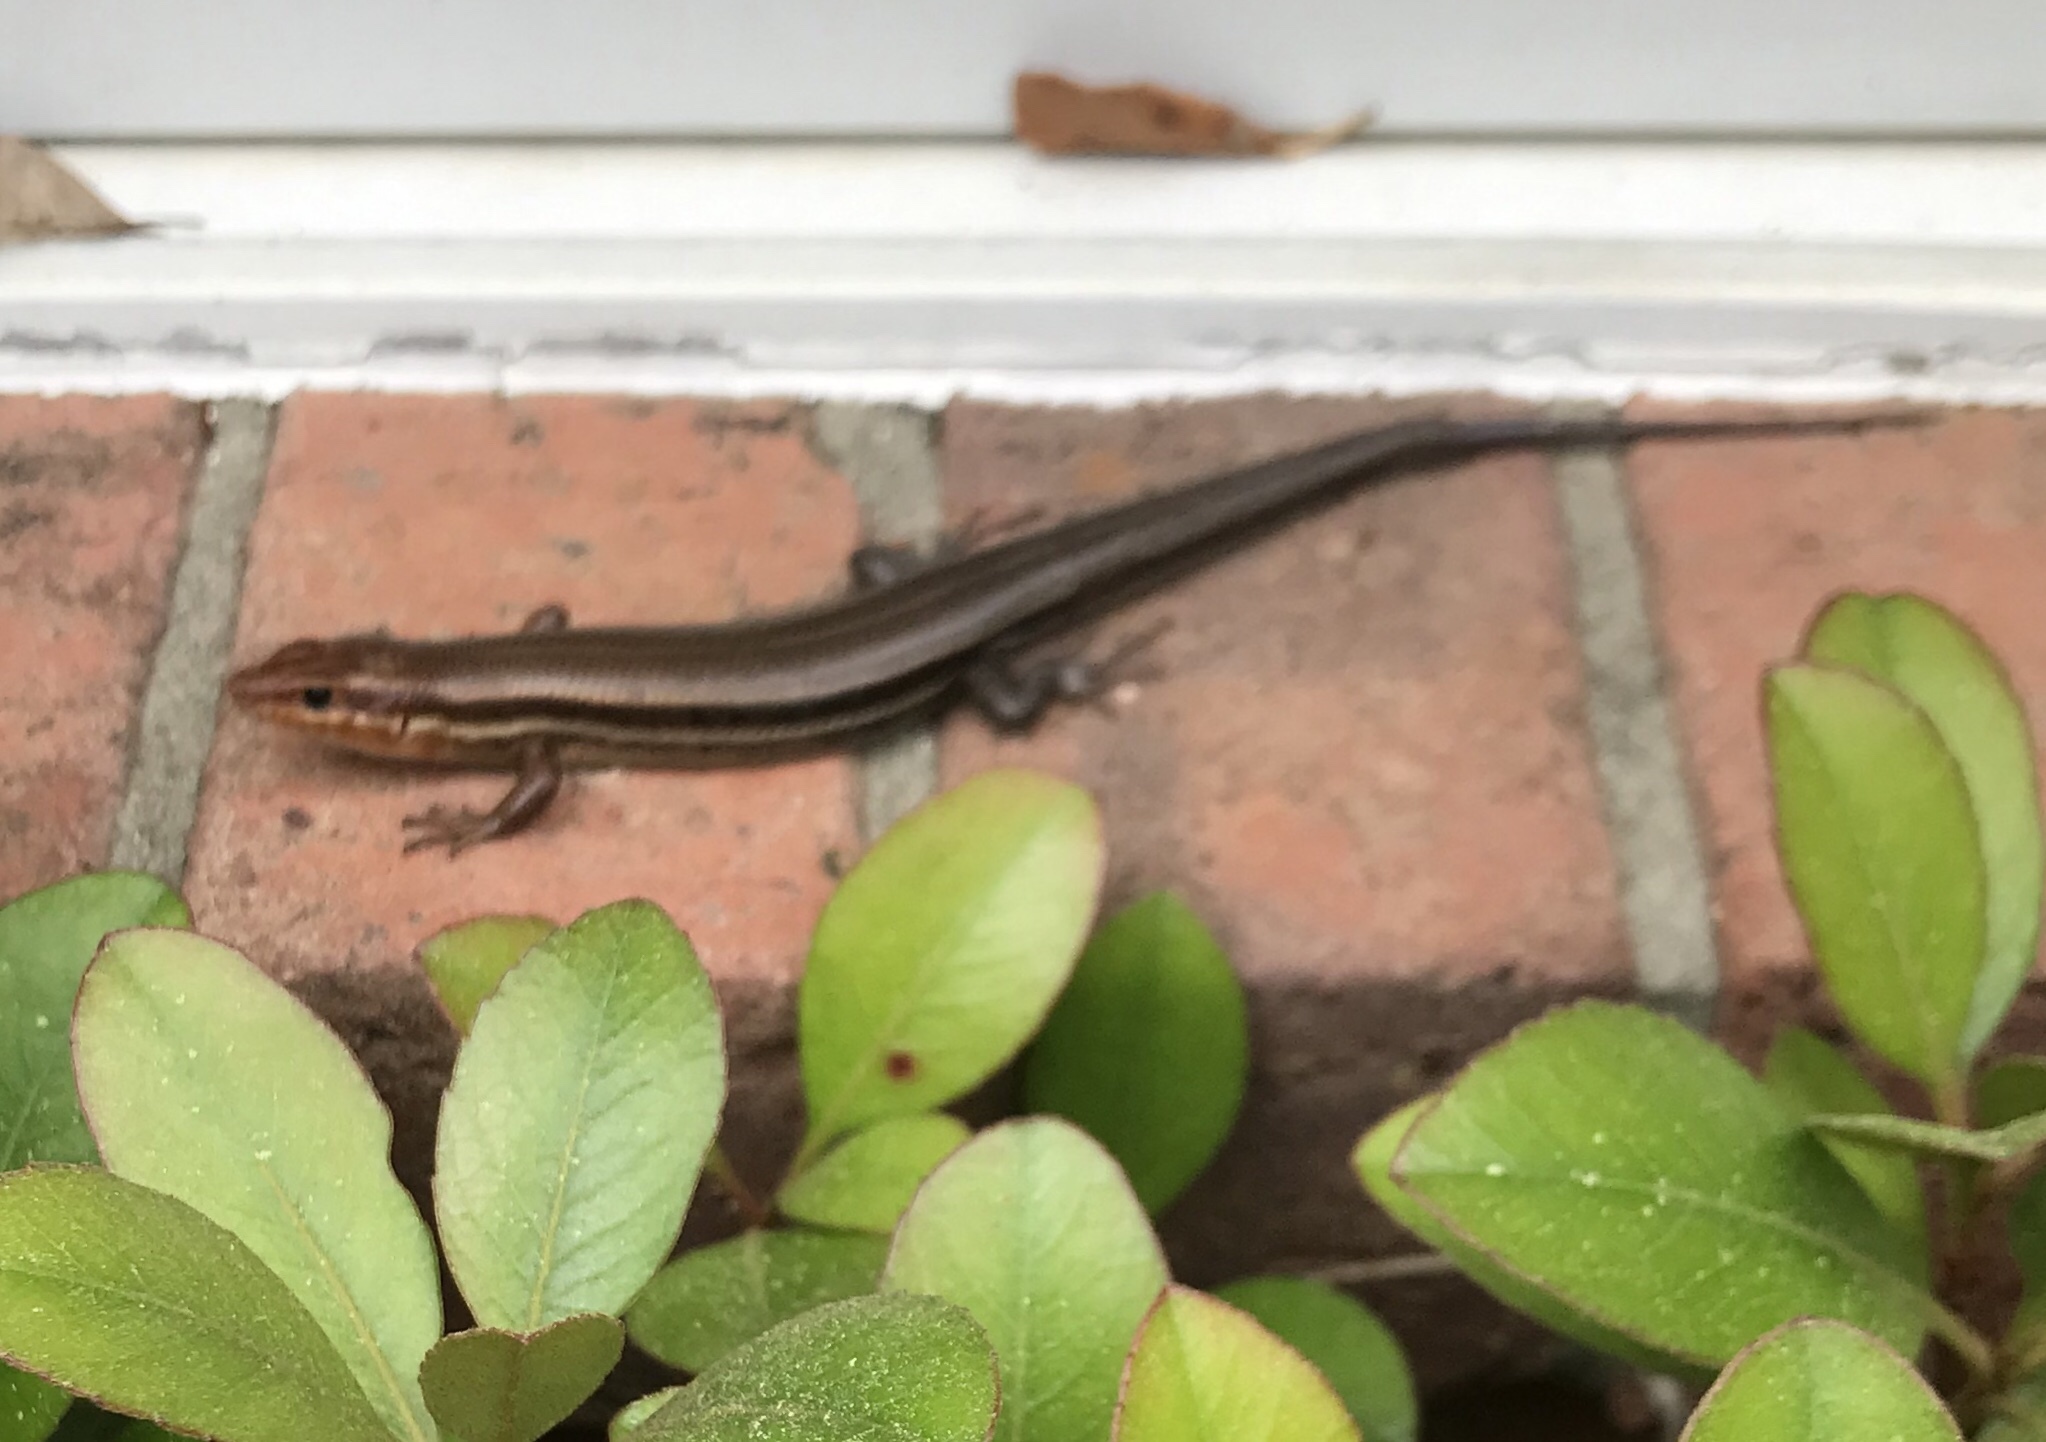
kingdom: Animalia
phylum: Chordata
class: Squamata
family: Scincidae
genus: Plestiodon
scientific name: Plestiodon
